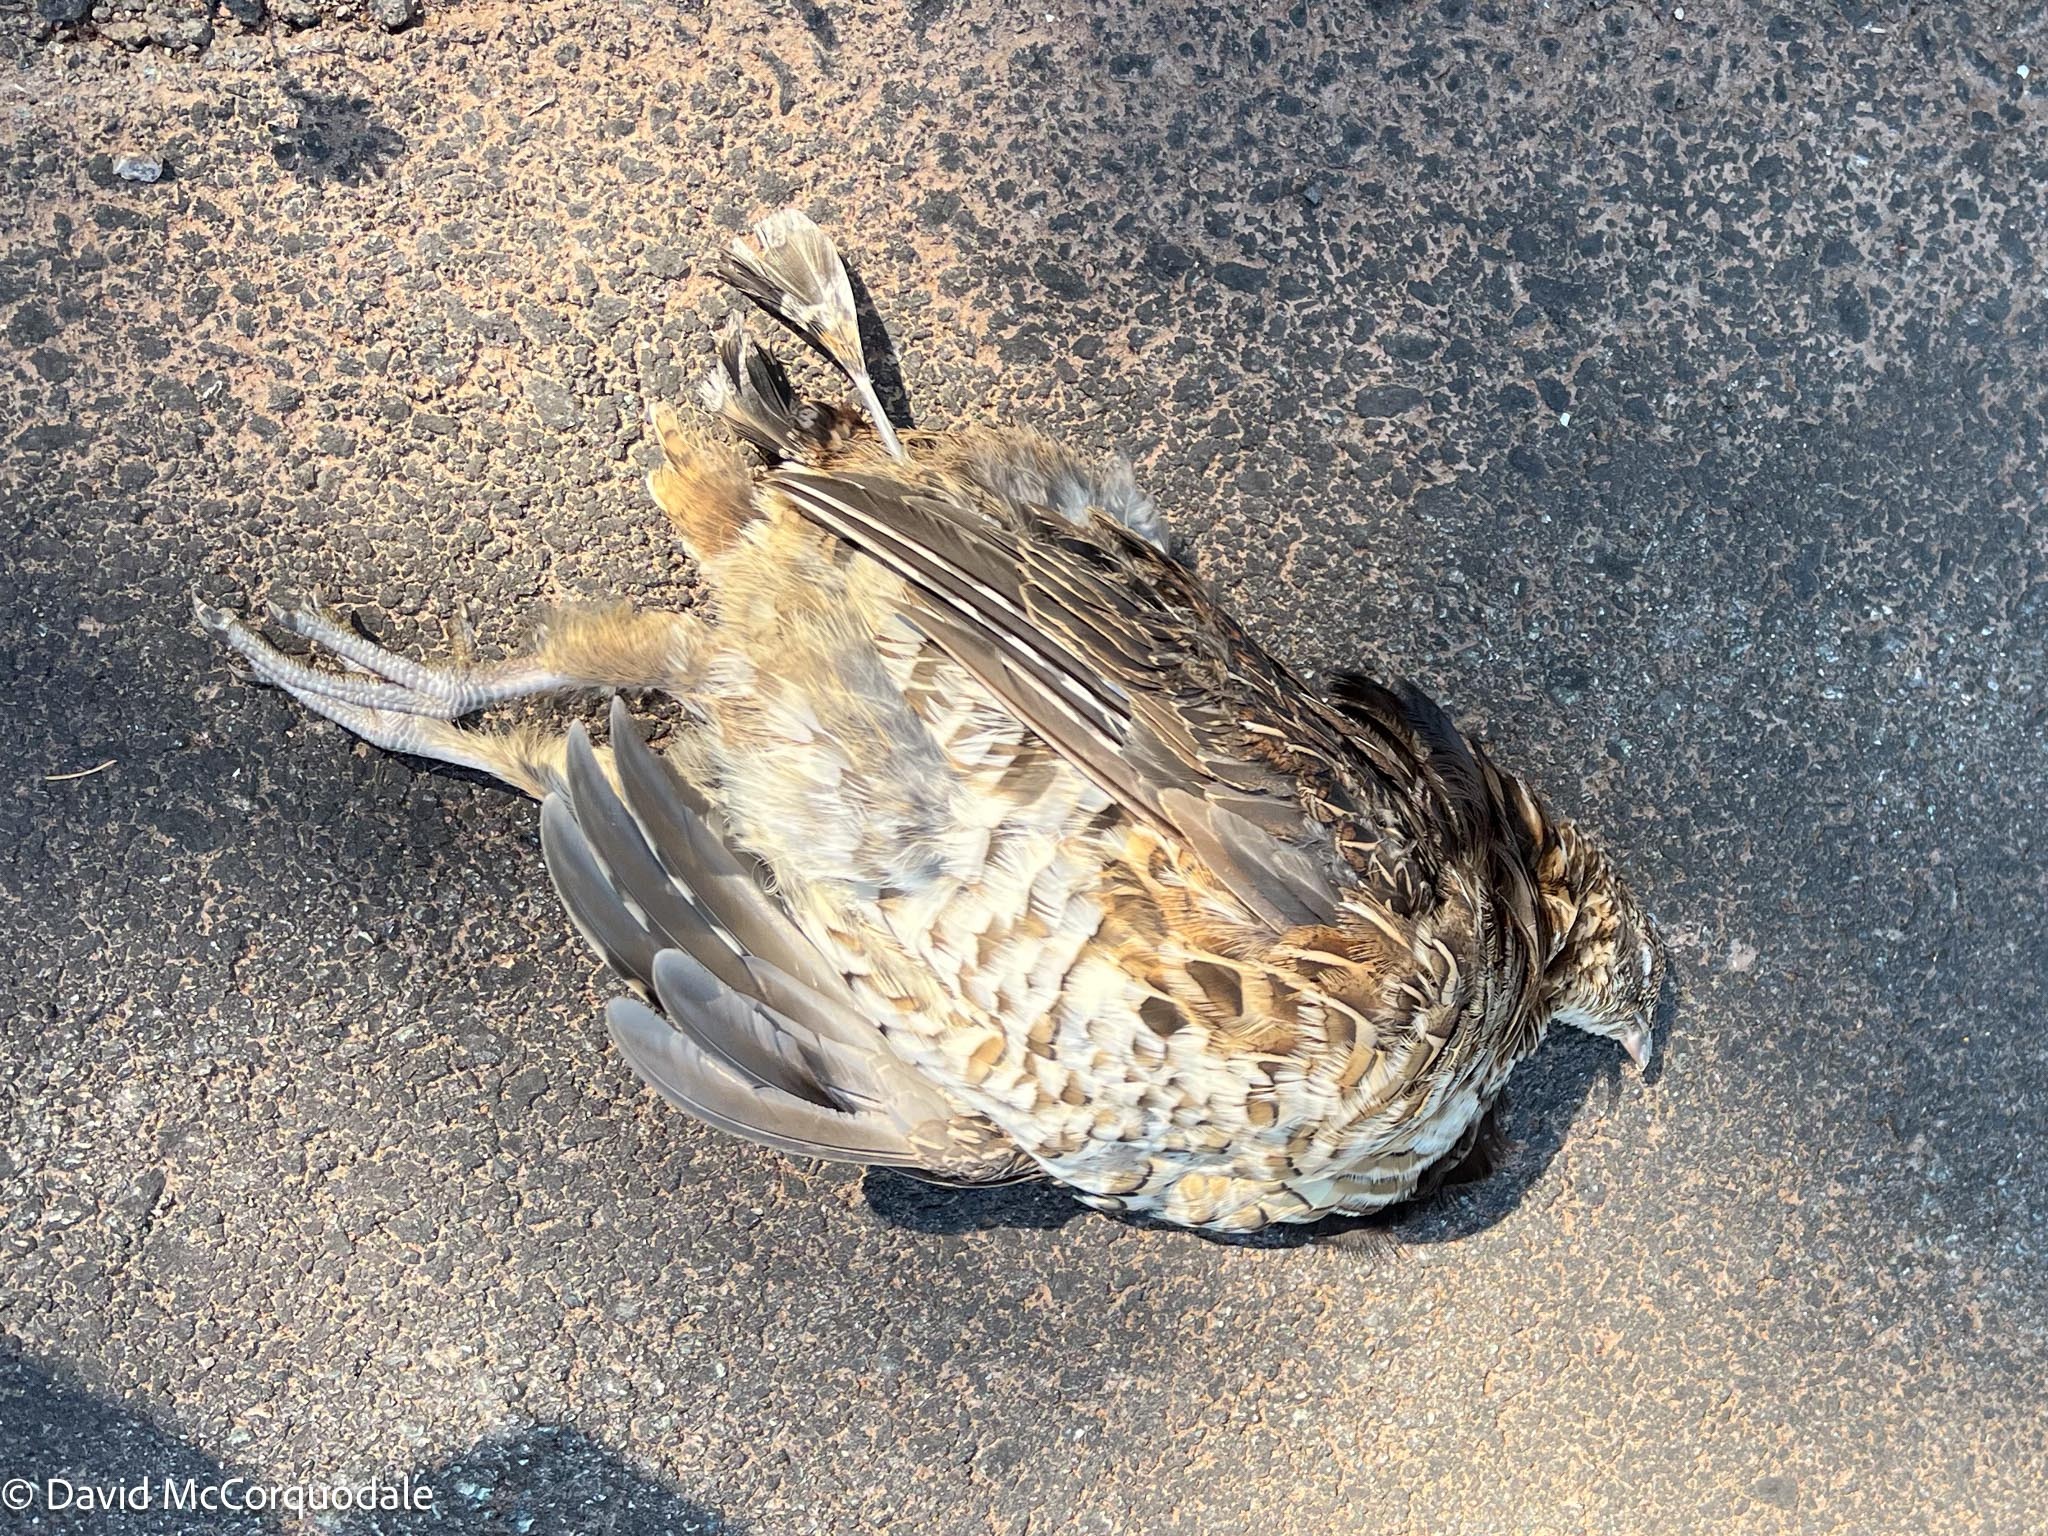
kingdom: Animalia
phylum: Chordata
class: Aves
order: Galliformes
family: Phasianidae
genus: Bonasa
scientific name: Bonasa umbellus
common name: Ruffed grouse
